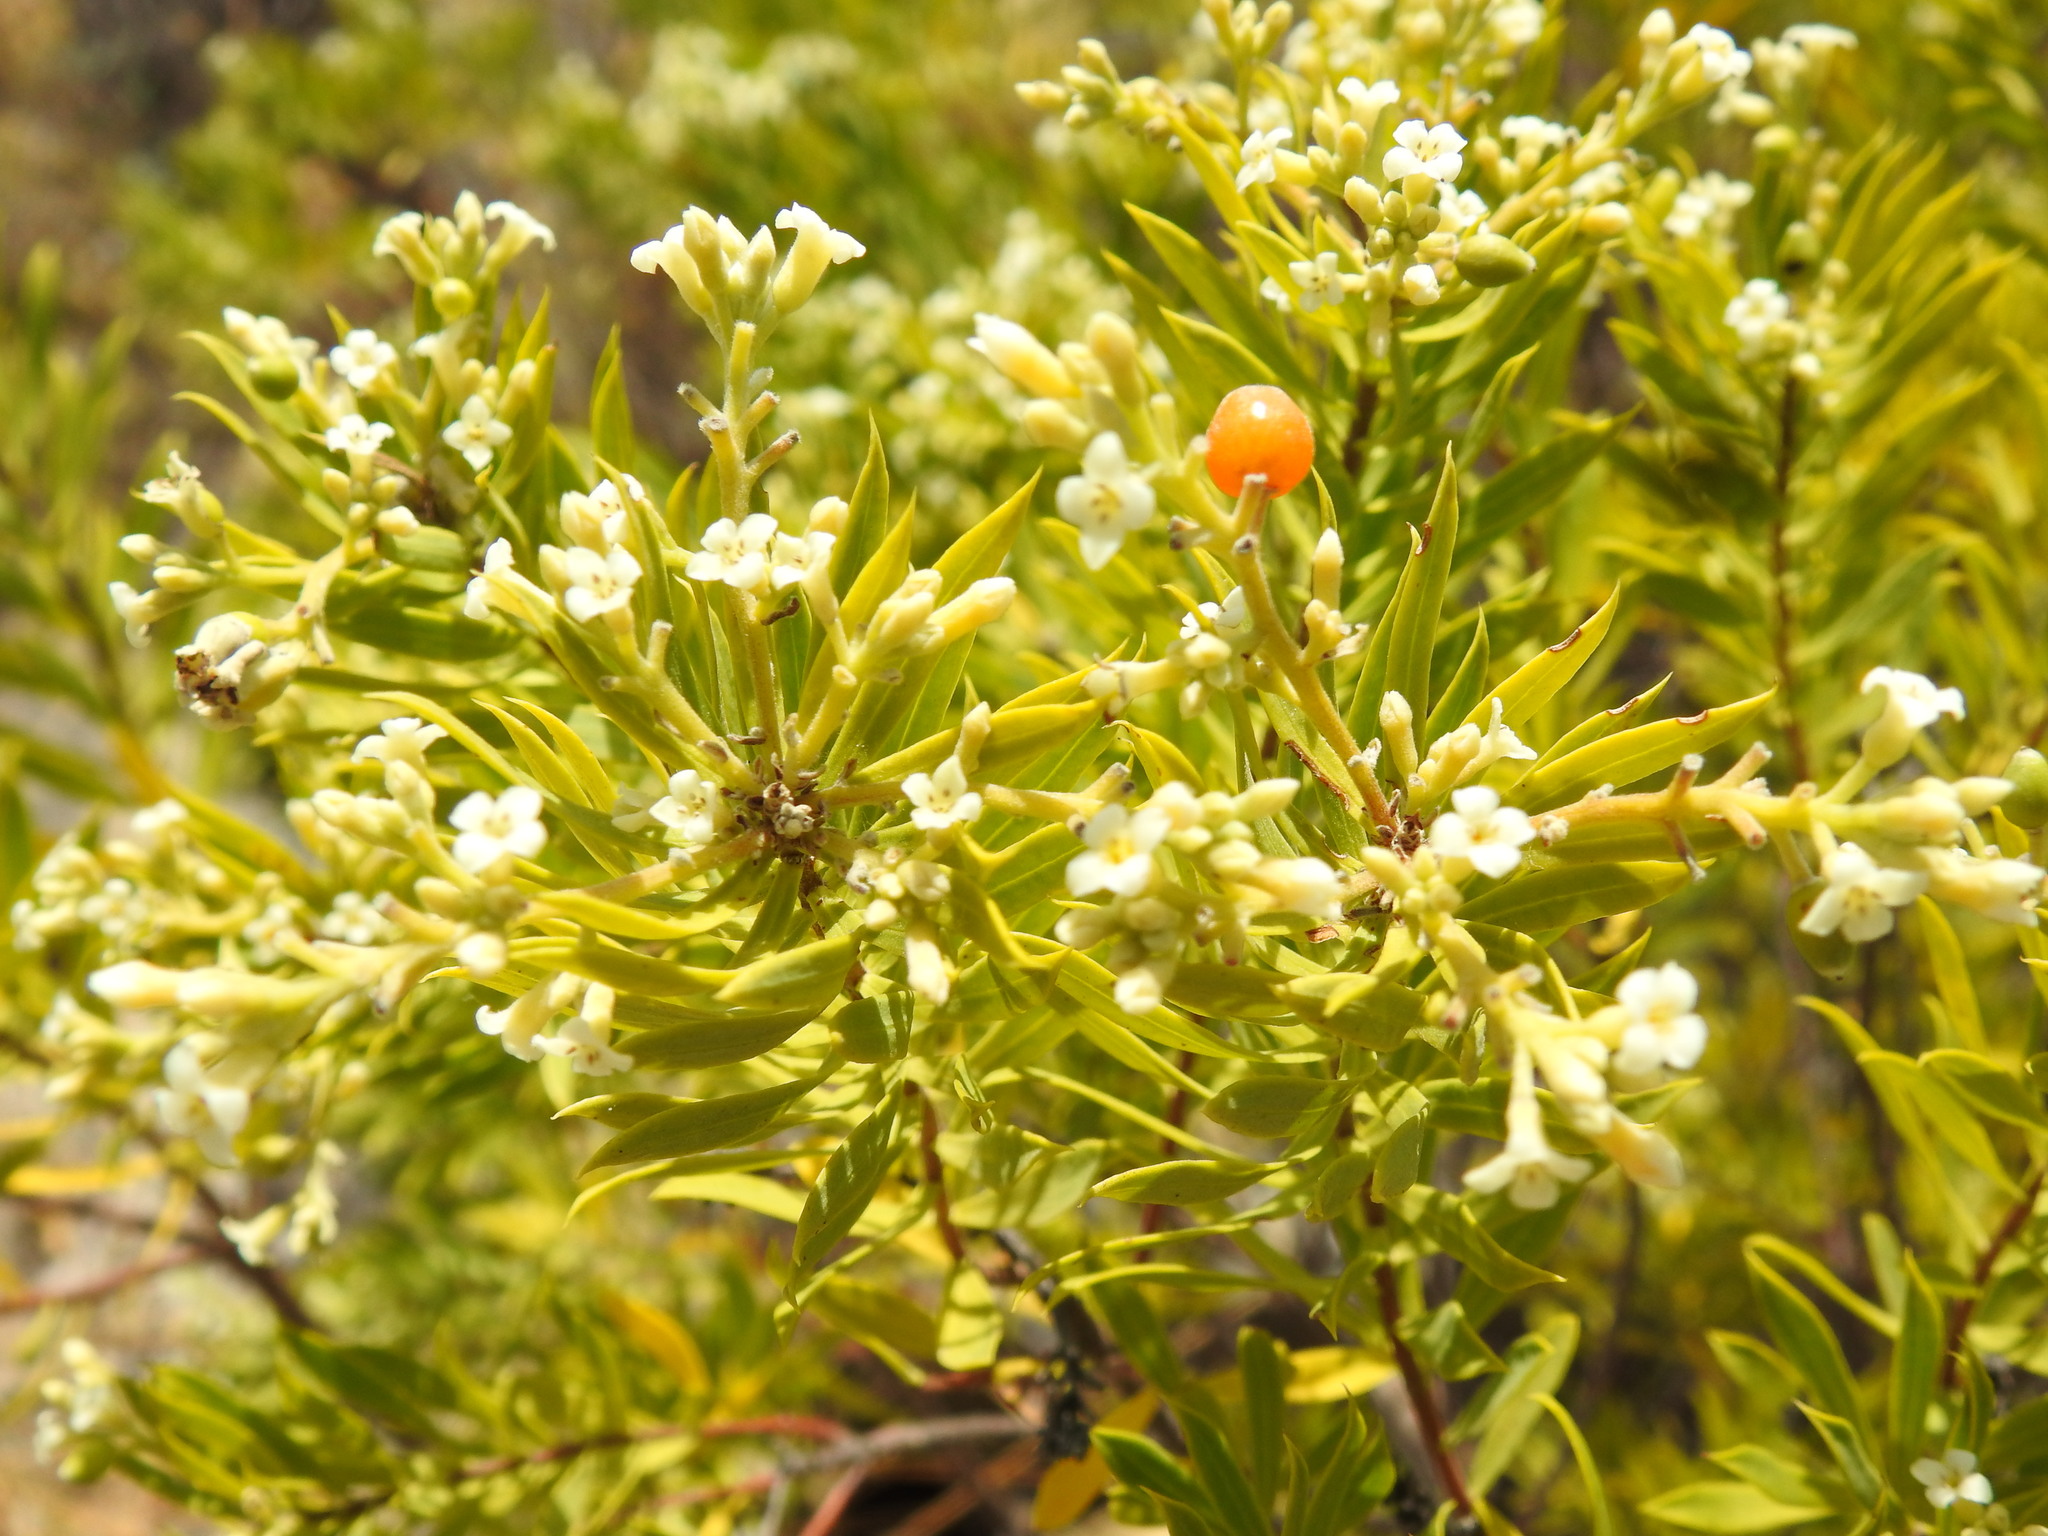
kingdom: Plantae
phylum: Tracheophyta
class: Magnoliopsida
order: Malvales
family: Thymelaeaceae
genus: Daphne
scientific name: Daphne gnidium
